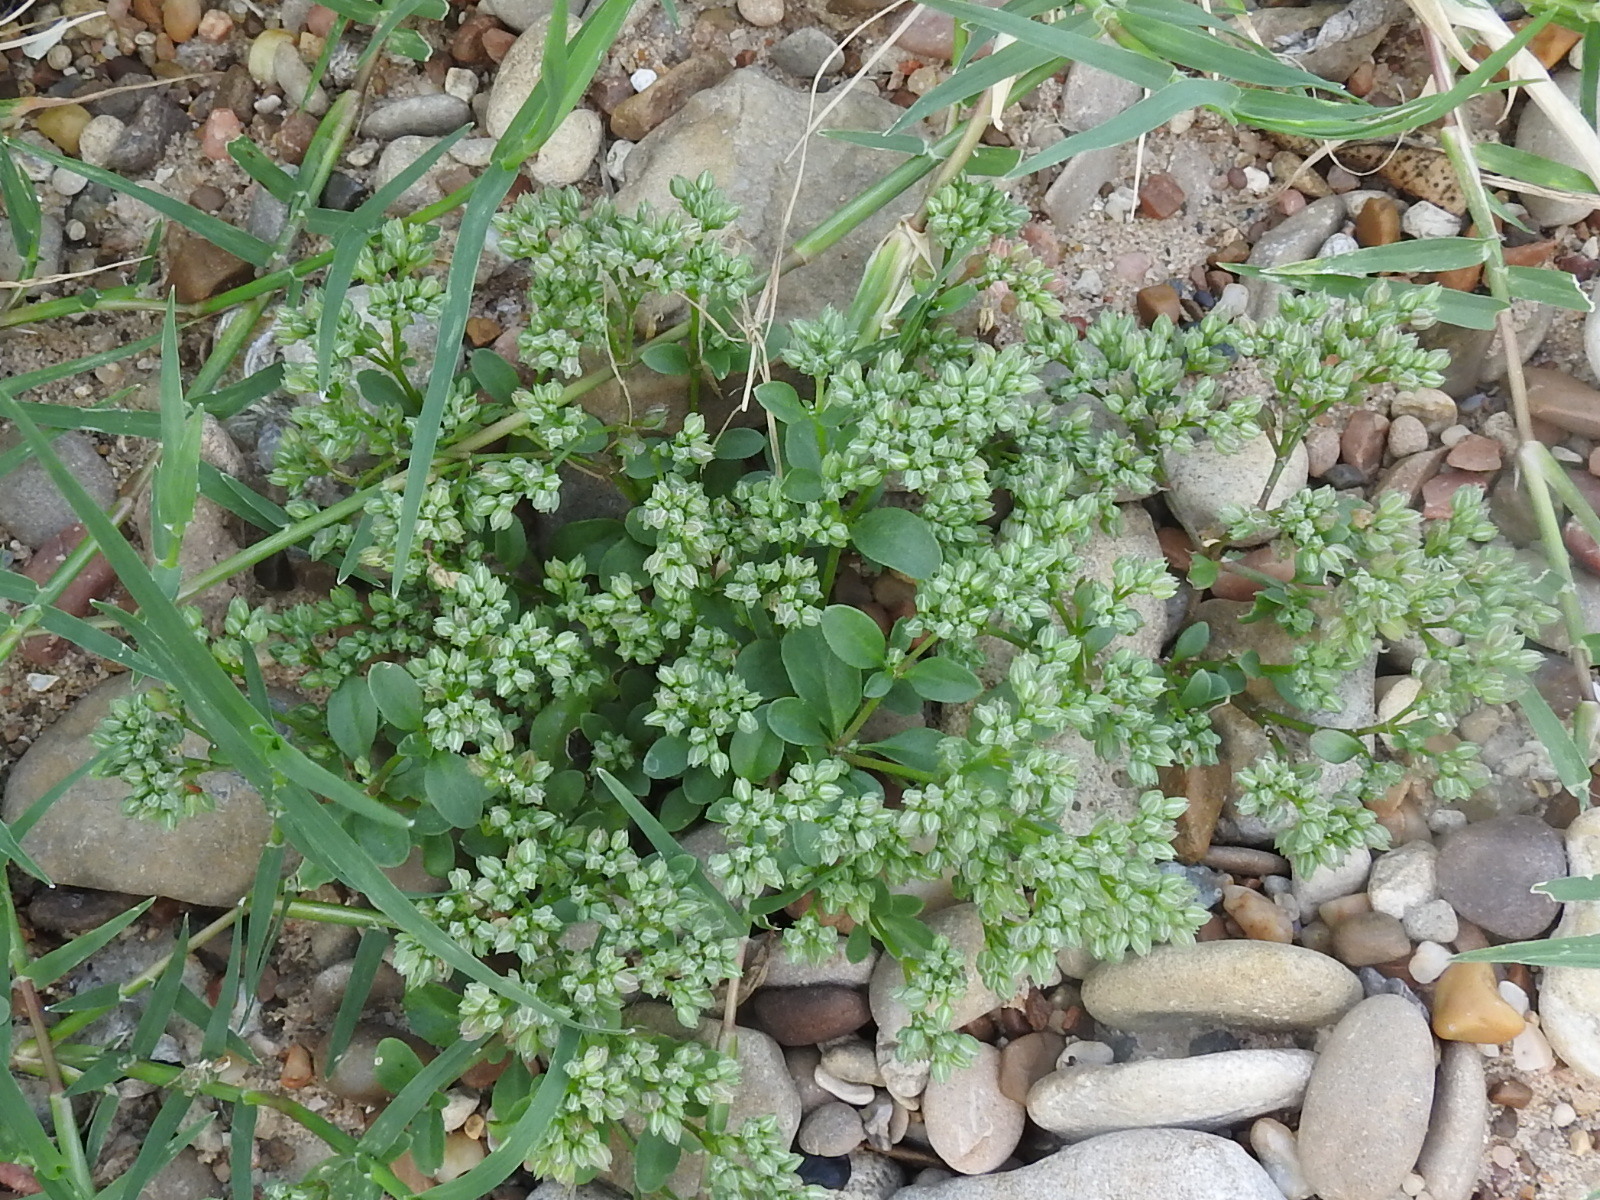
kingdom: Plantae
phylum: Tracheophyta
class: Magnoliopsida
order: Caryophyllales
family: Caryophyllaceae
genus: Polycarpon
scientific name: Polycarpon tetraphyllum
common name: Four-leaved all-seed
